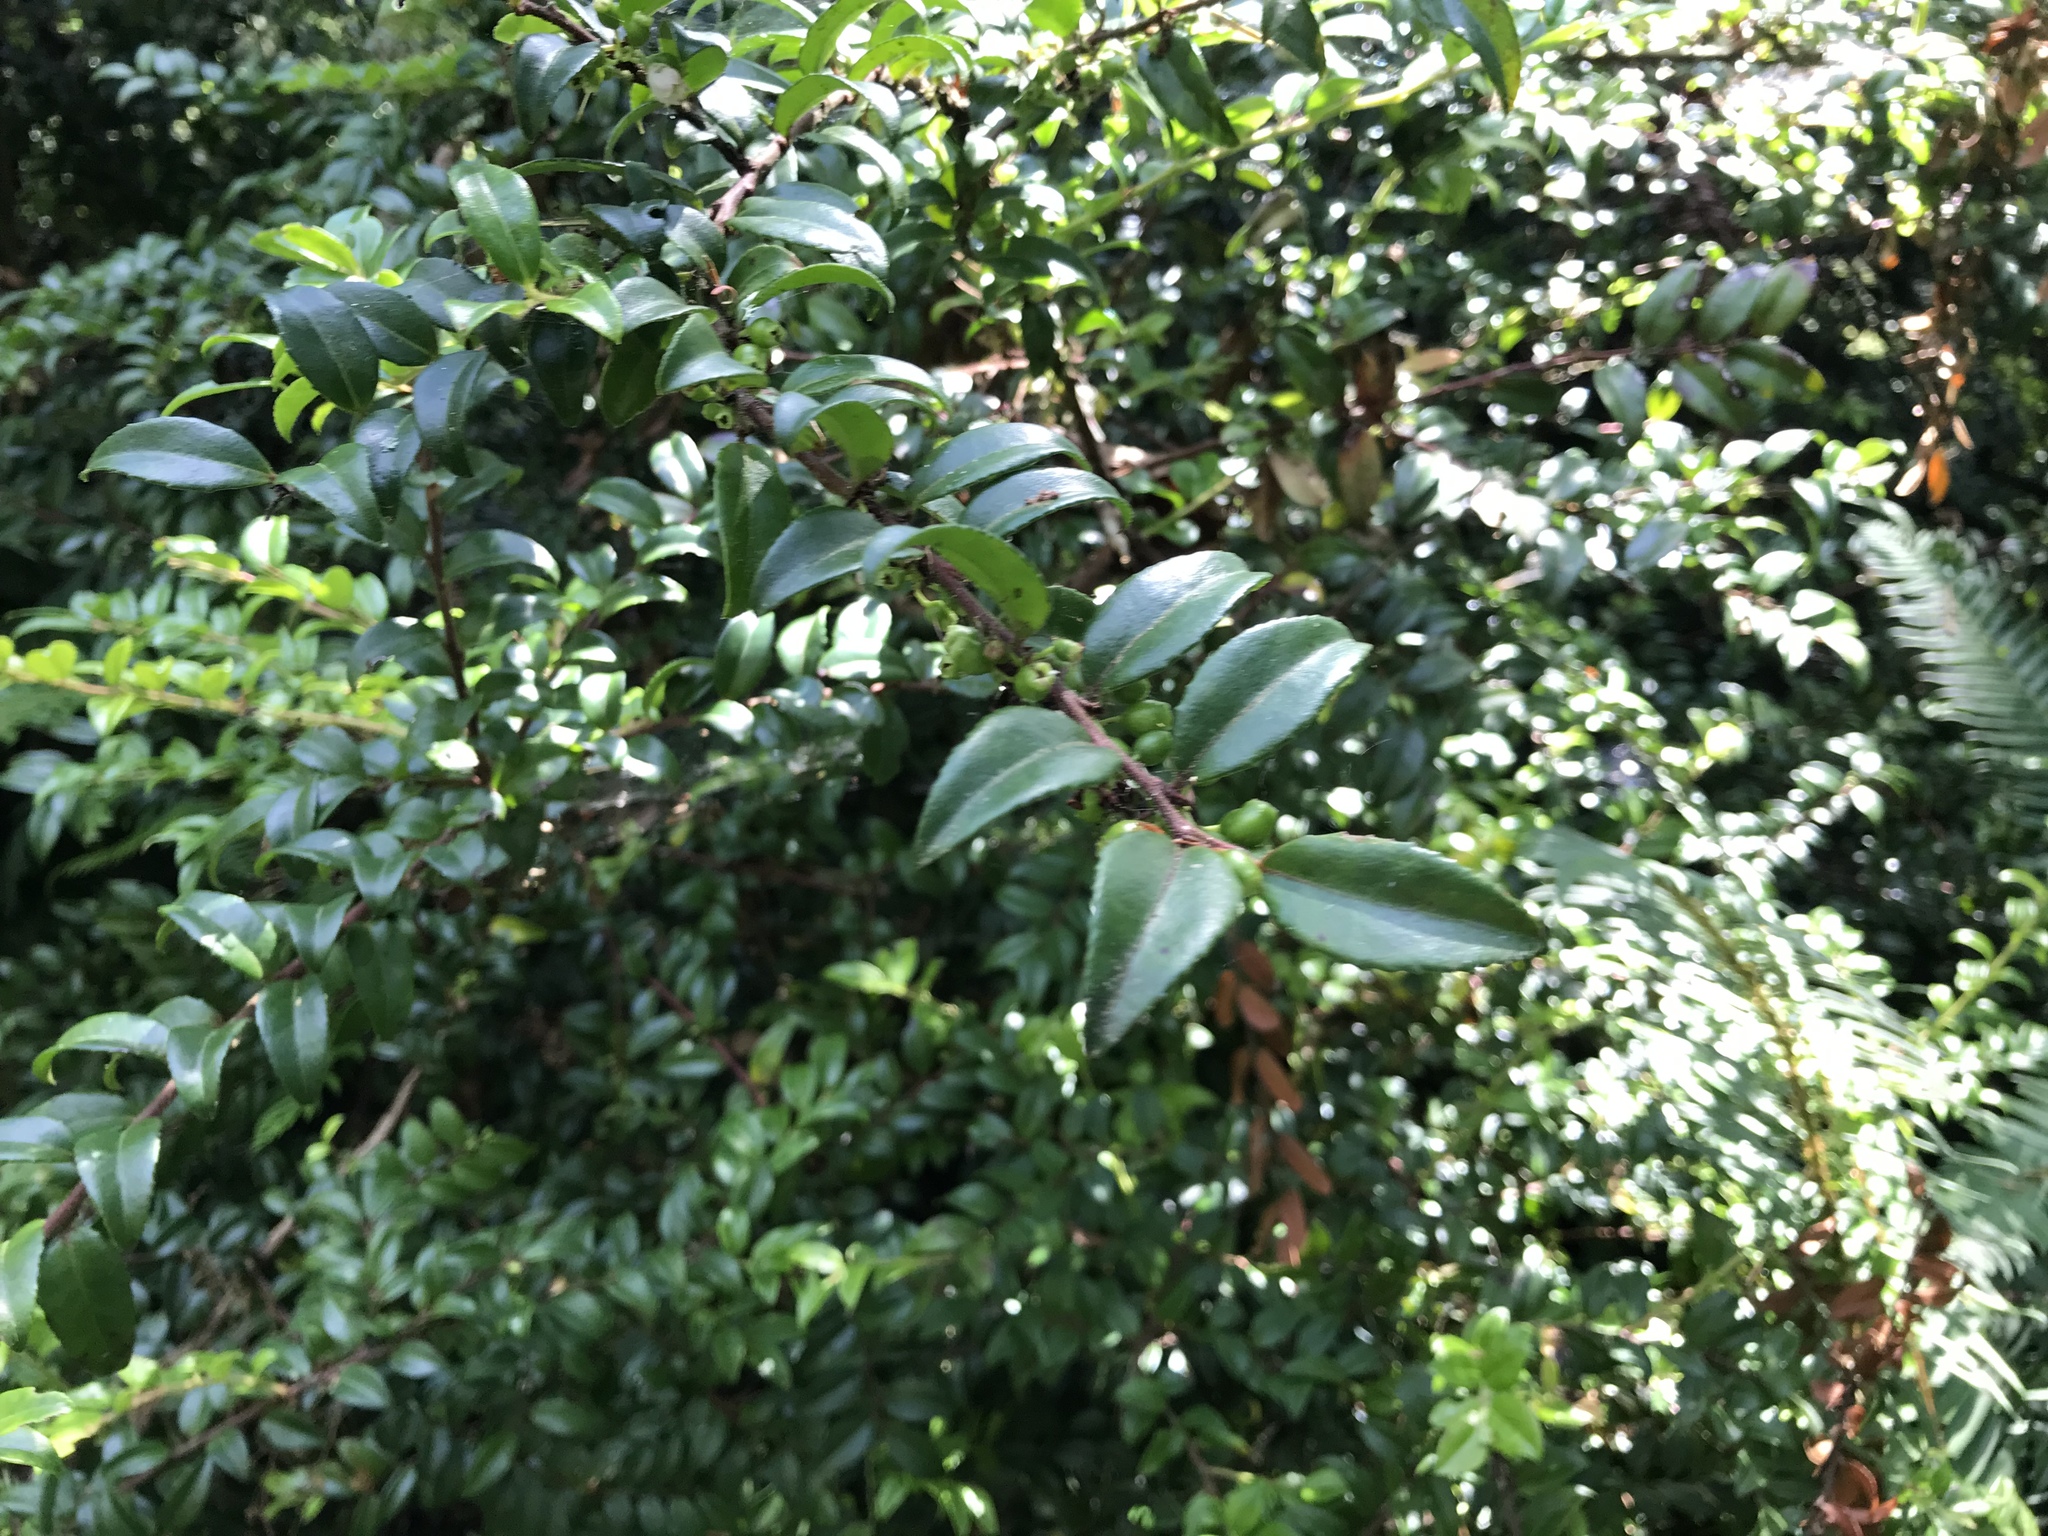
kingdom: Plantae
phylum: Tracheophyta
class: Magnoliopsida
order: Ericales
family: Ericaceae
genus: Vaccinium
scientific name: Vaccinium ovatum
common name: California-huckleberry
